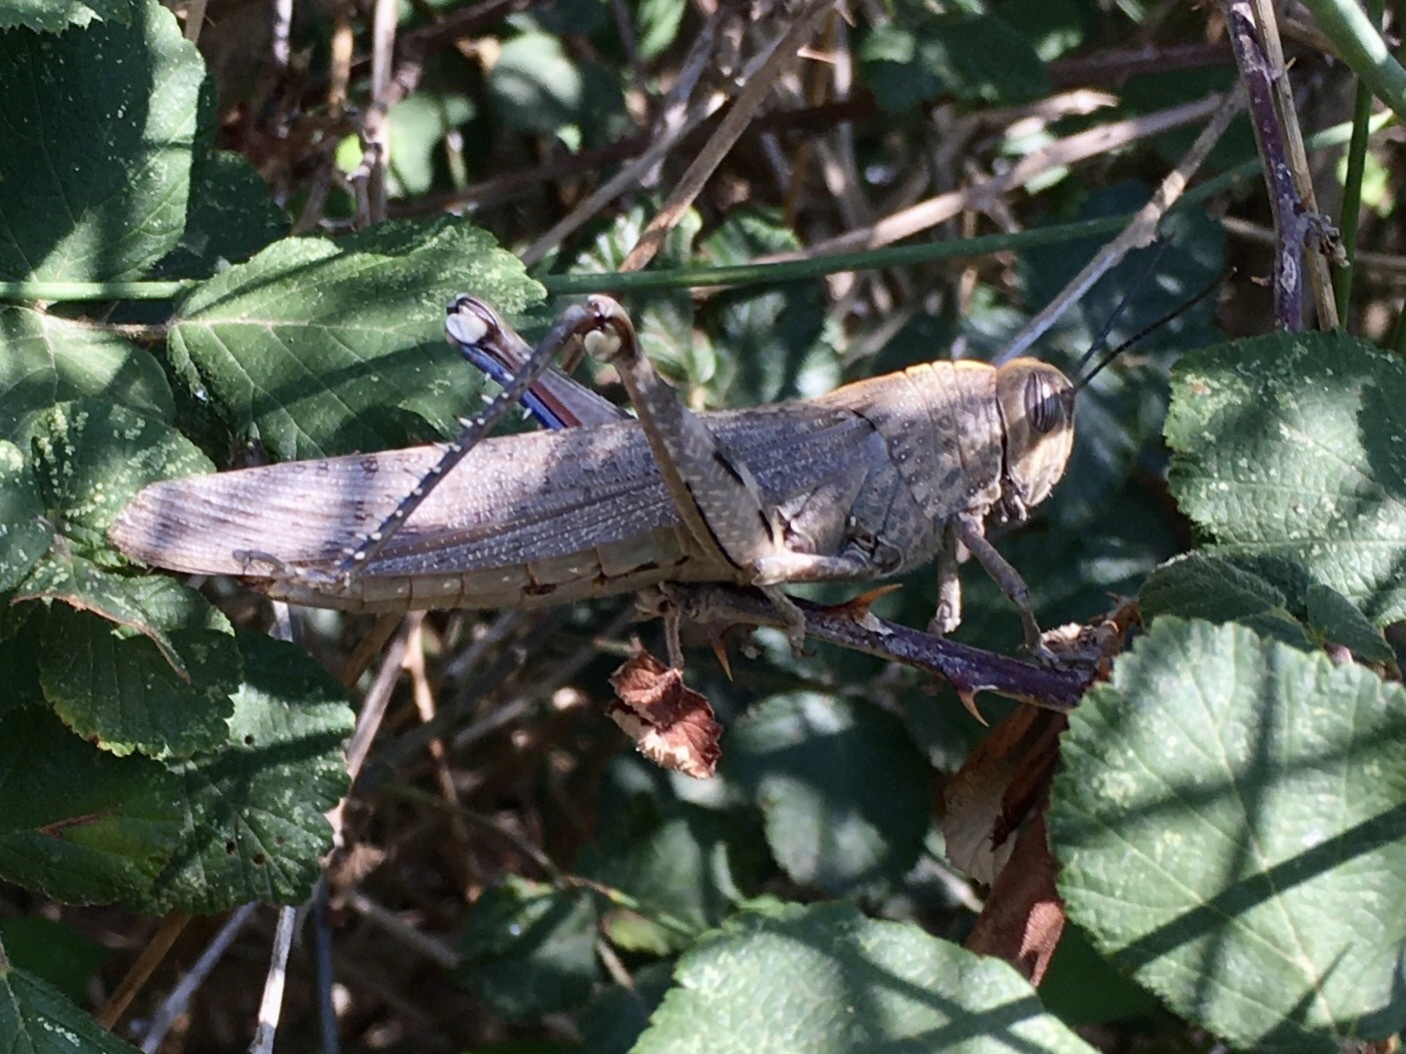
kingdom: Animalia
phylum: Arthropoda
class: Insecta
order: Orthoptera
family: Acrididae
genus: Anacridium
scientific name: Anacridium aegyptium
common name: Egyptian grasshopper
